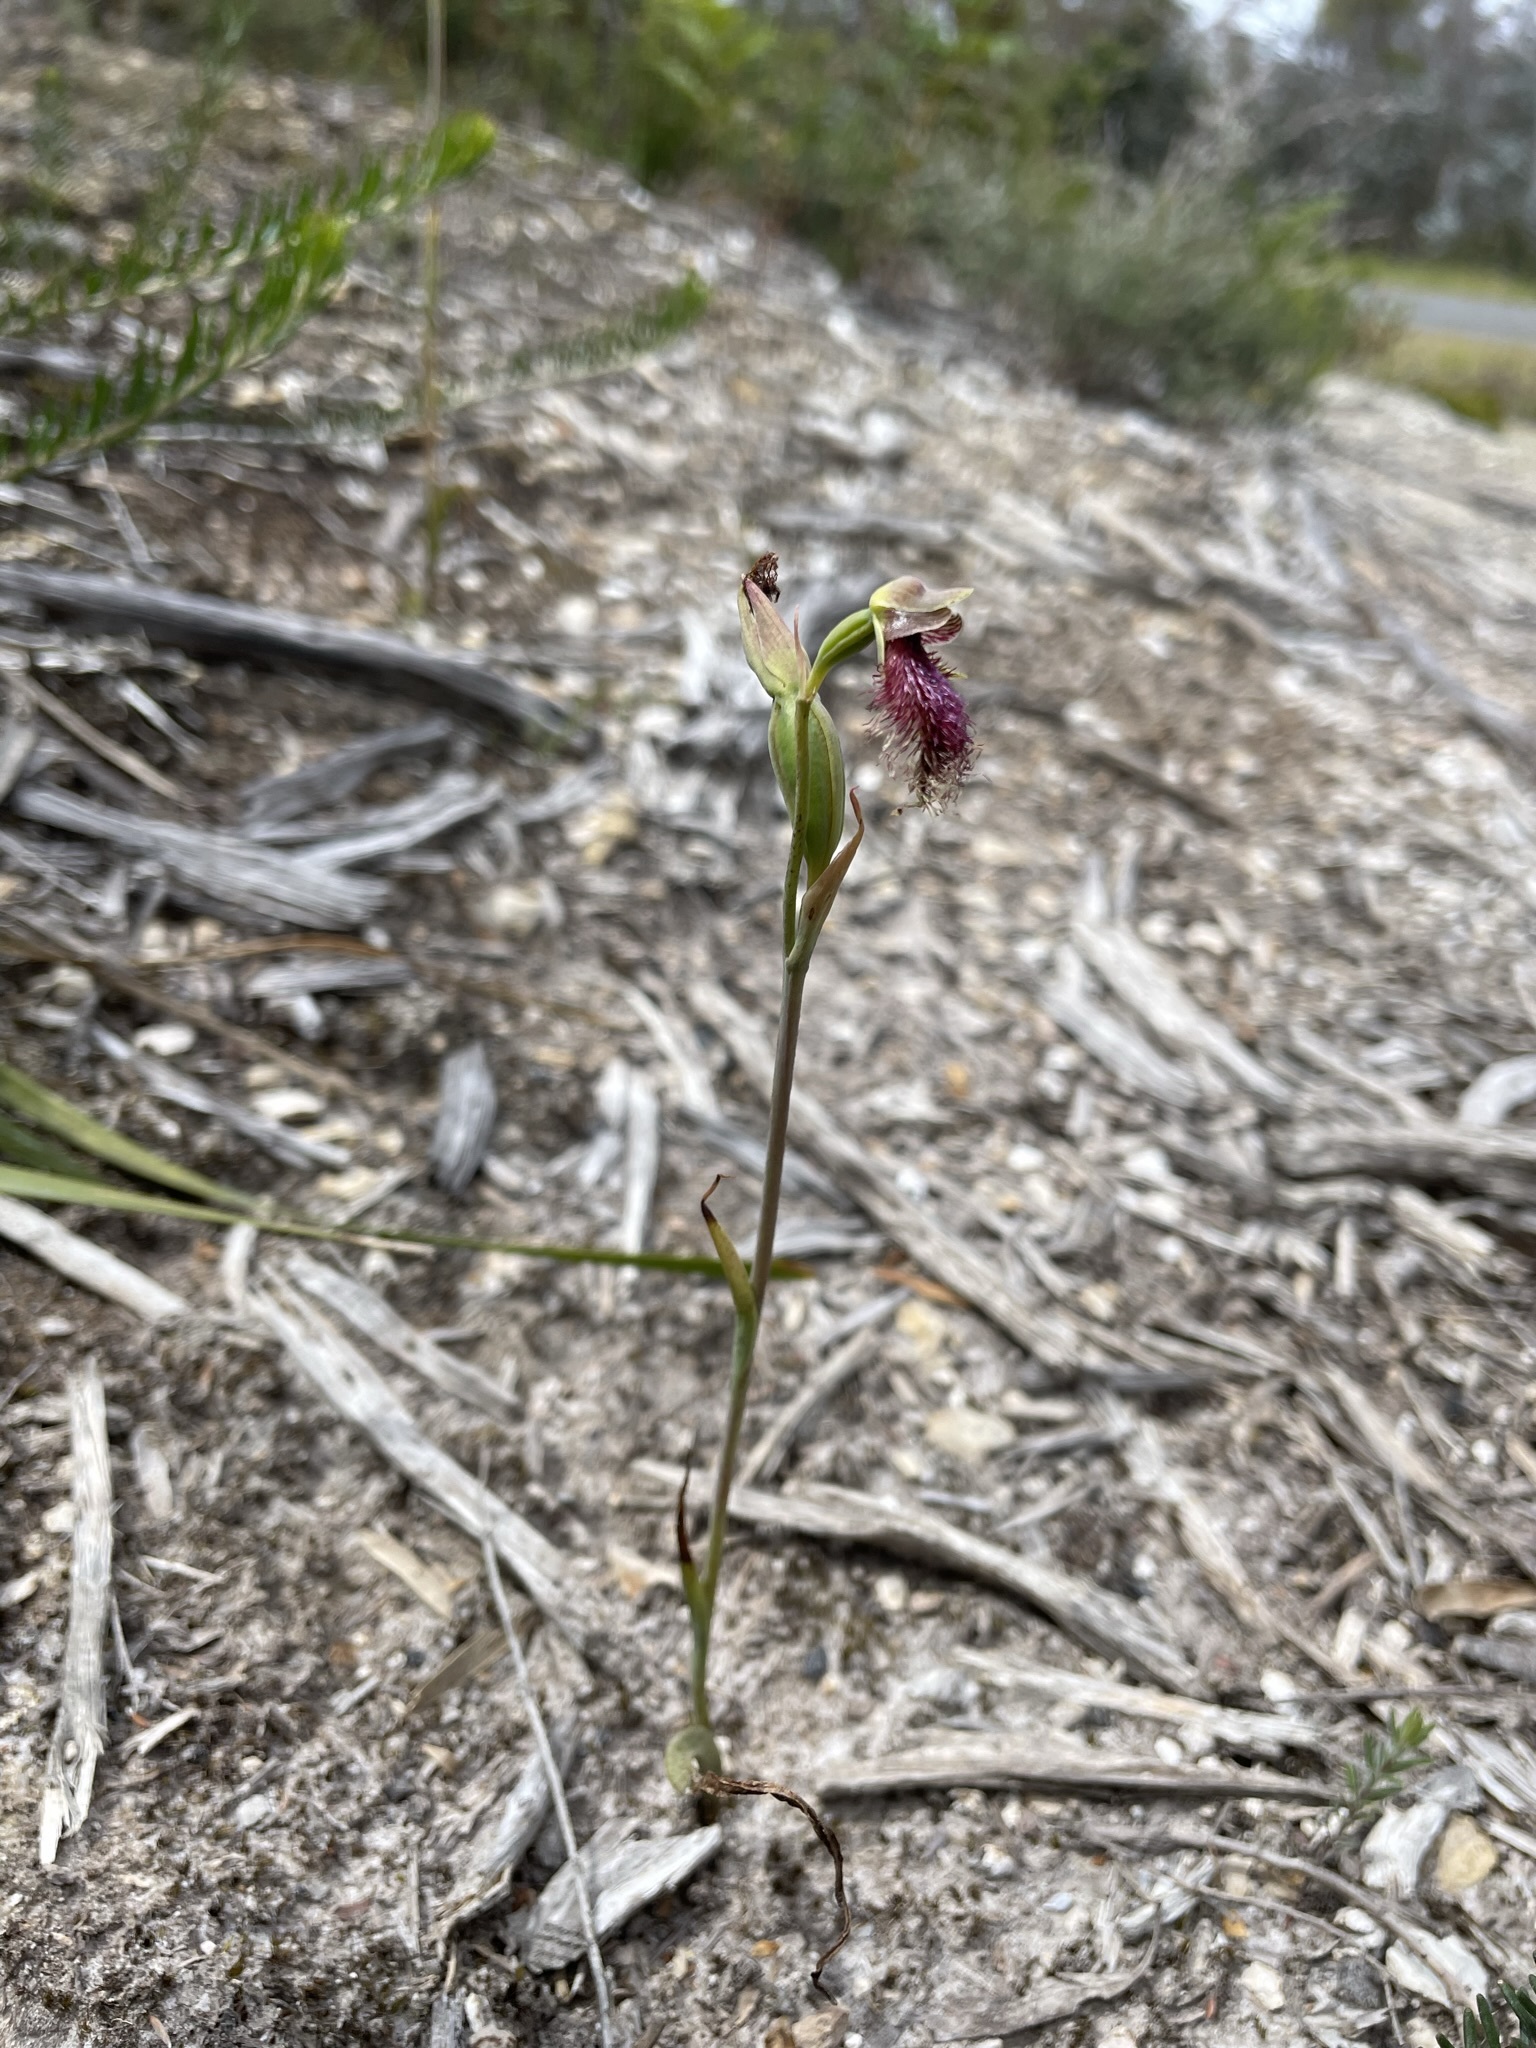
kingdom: Plantae
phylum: Tracheophyta
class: Liliopsida
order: Asparagales
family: Orchidaceae
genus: Calochilus
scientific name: Calochilus robertsonii
